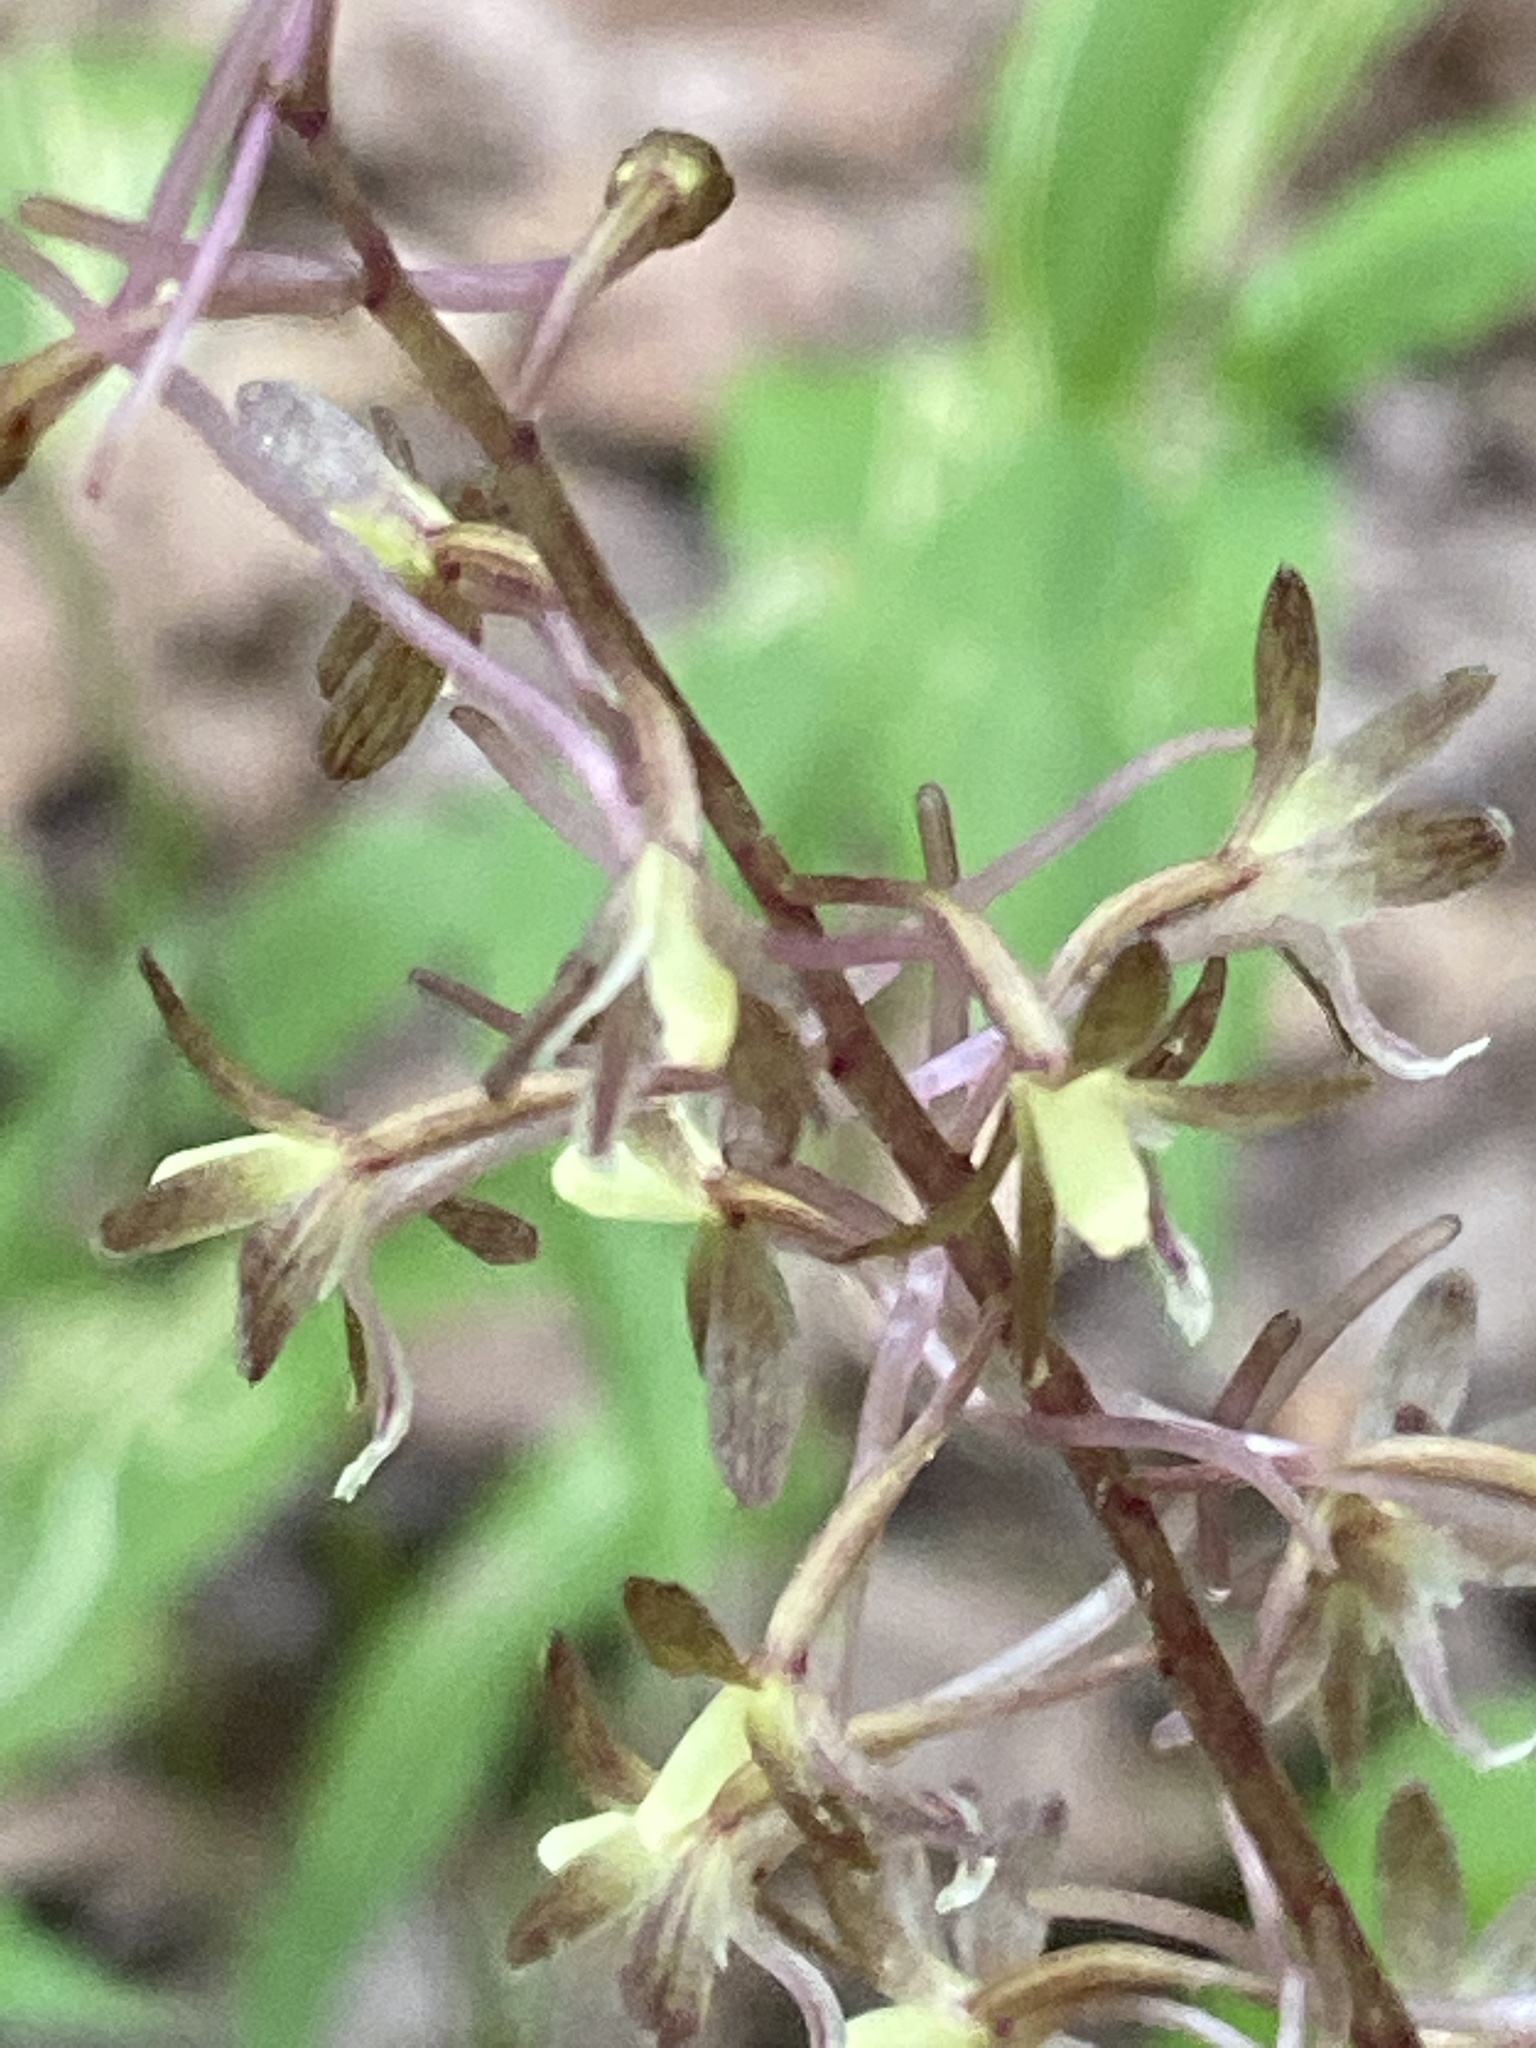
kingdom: Plantae
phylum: Tracheophyta
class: Liliopsida
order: Asparagales
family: Orchidaceae
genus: Tipularia
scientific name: Tipularia discolor
